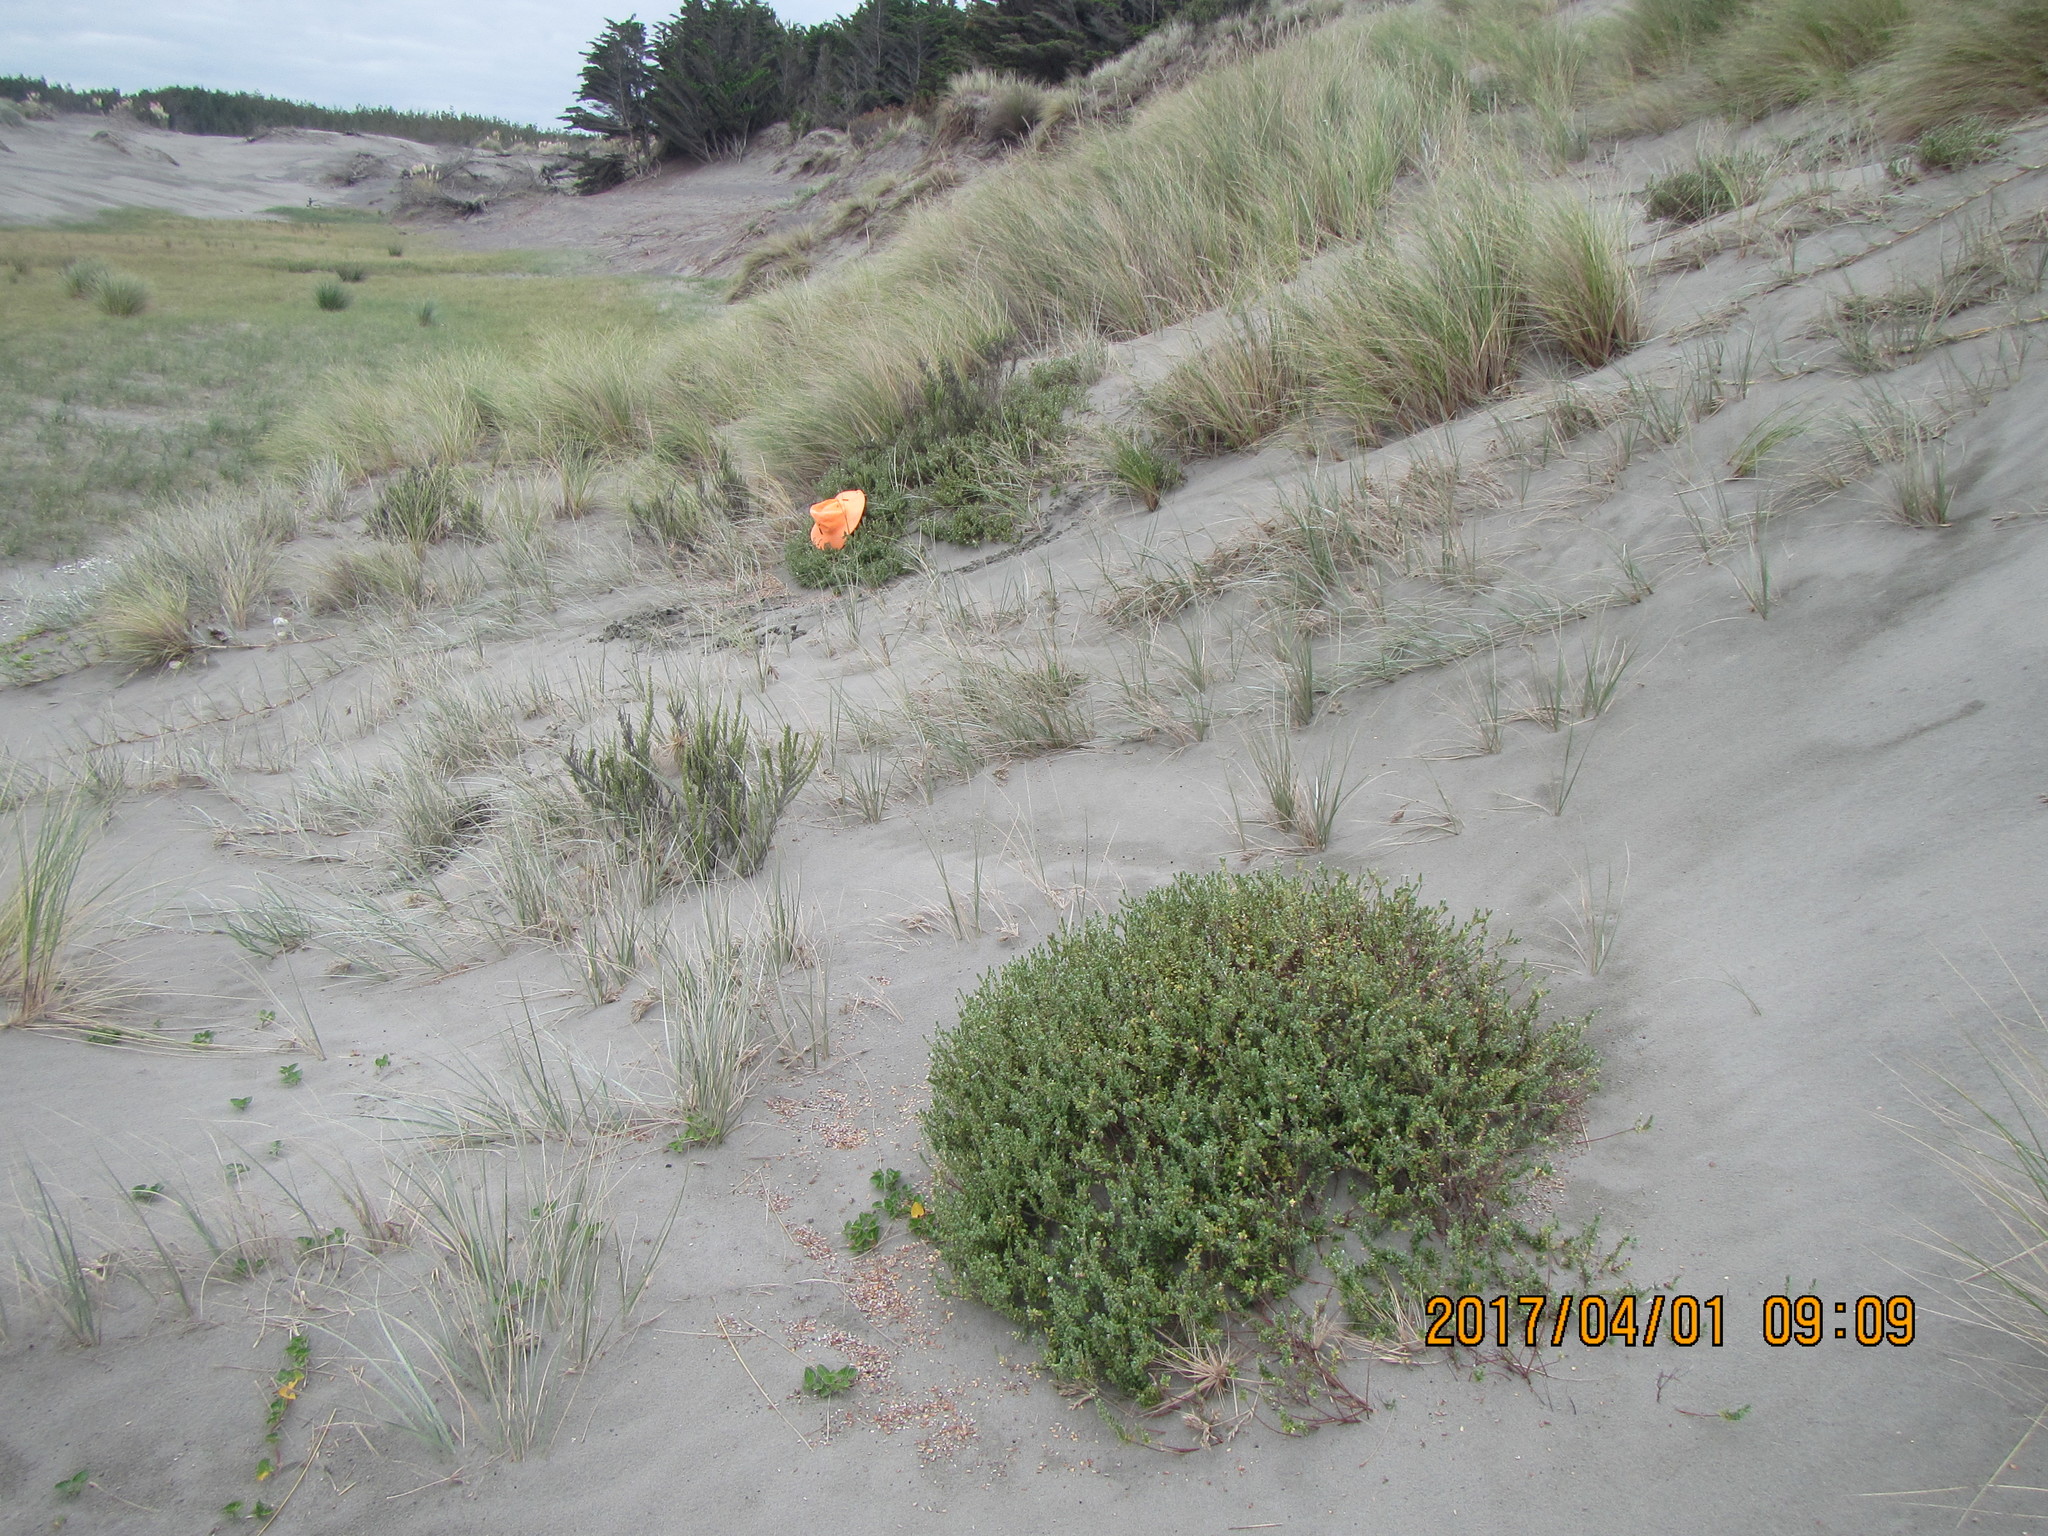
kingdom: Plantae
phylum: Tracheophyta
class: Magnoliopsida
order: Malvales
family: Thymelaeaceae
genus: Pimelea
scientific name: Pimelea villosa
